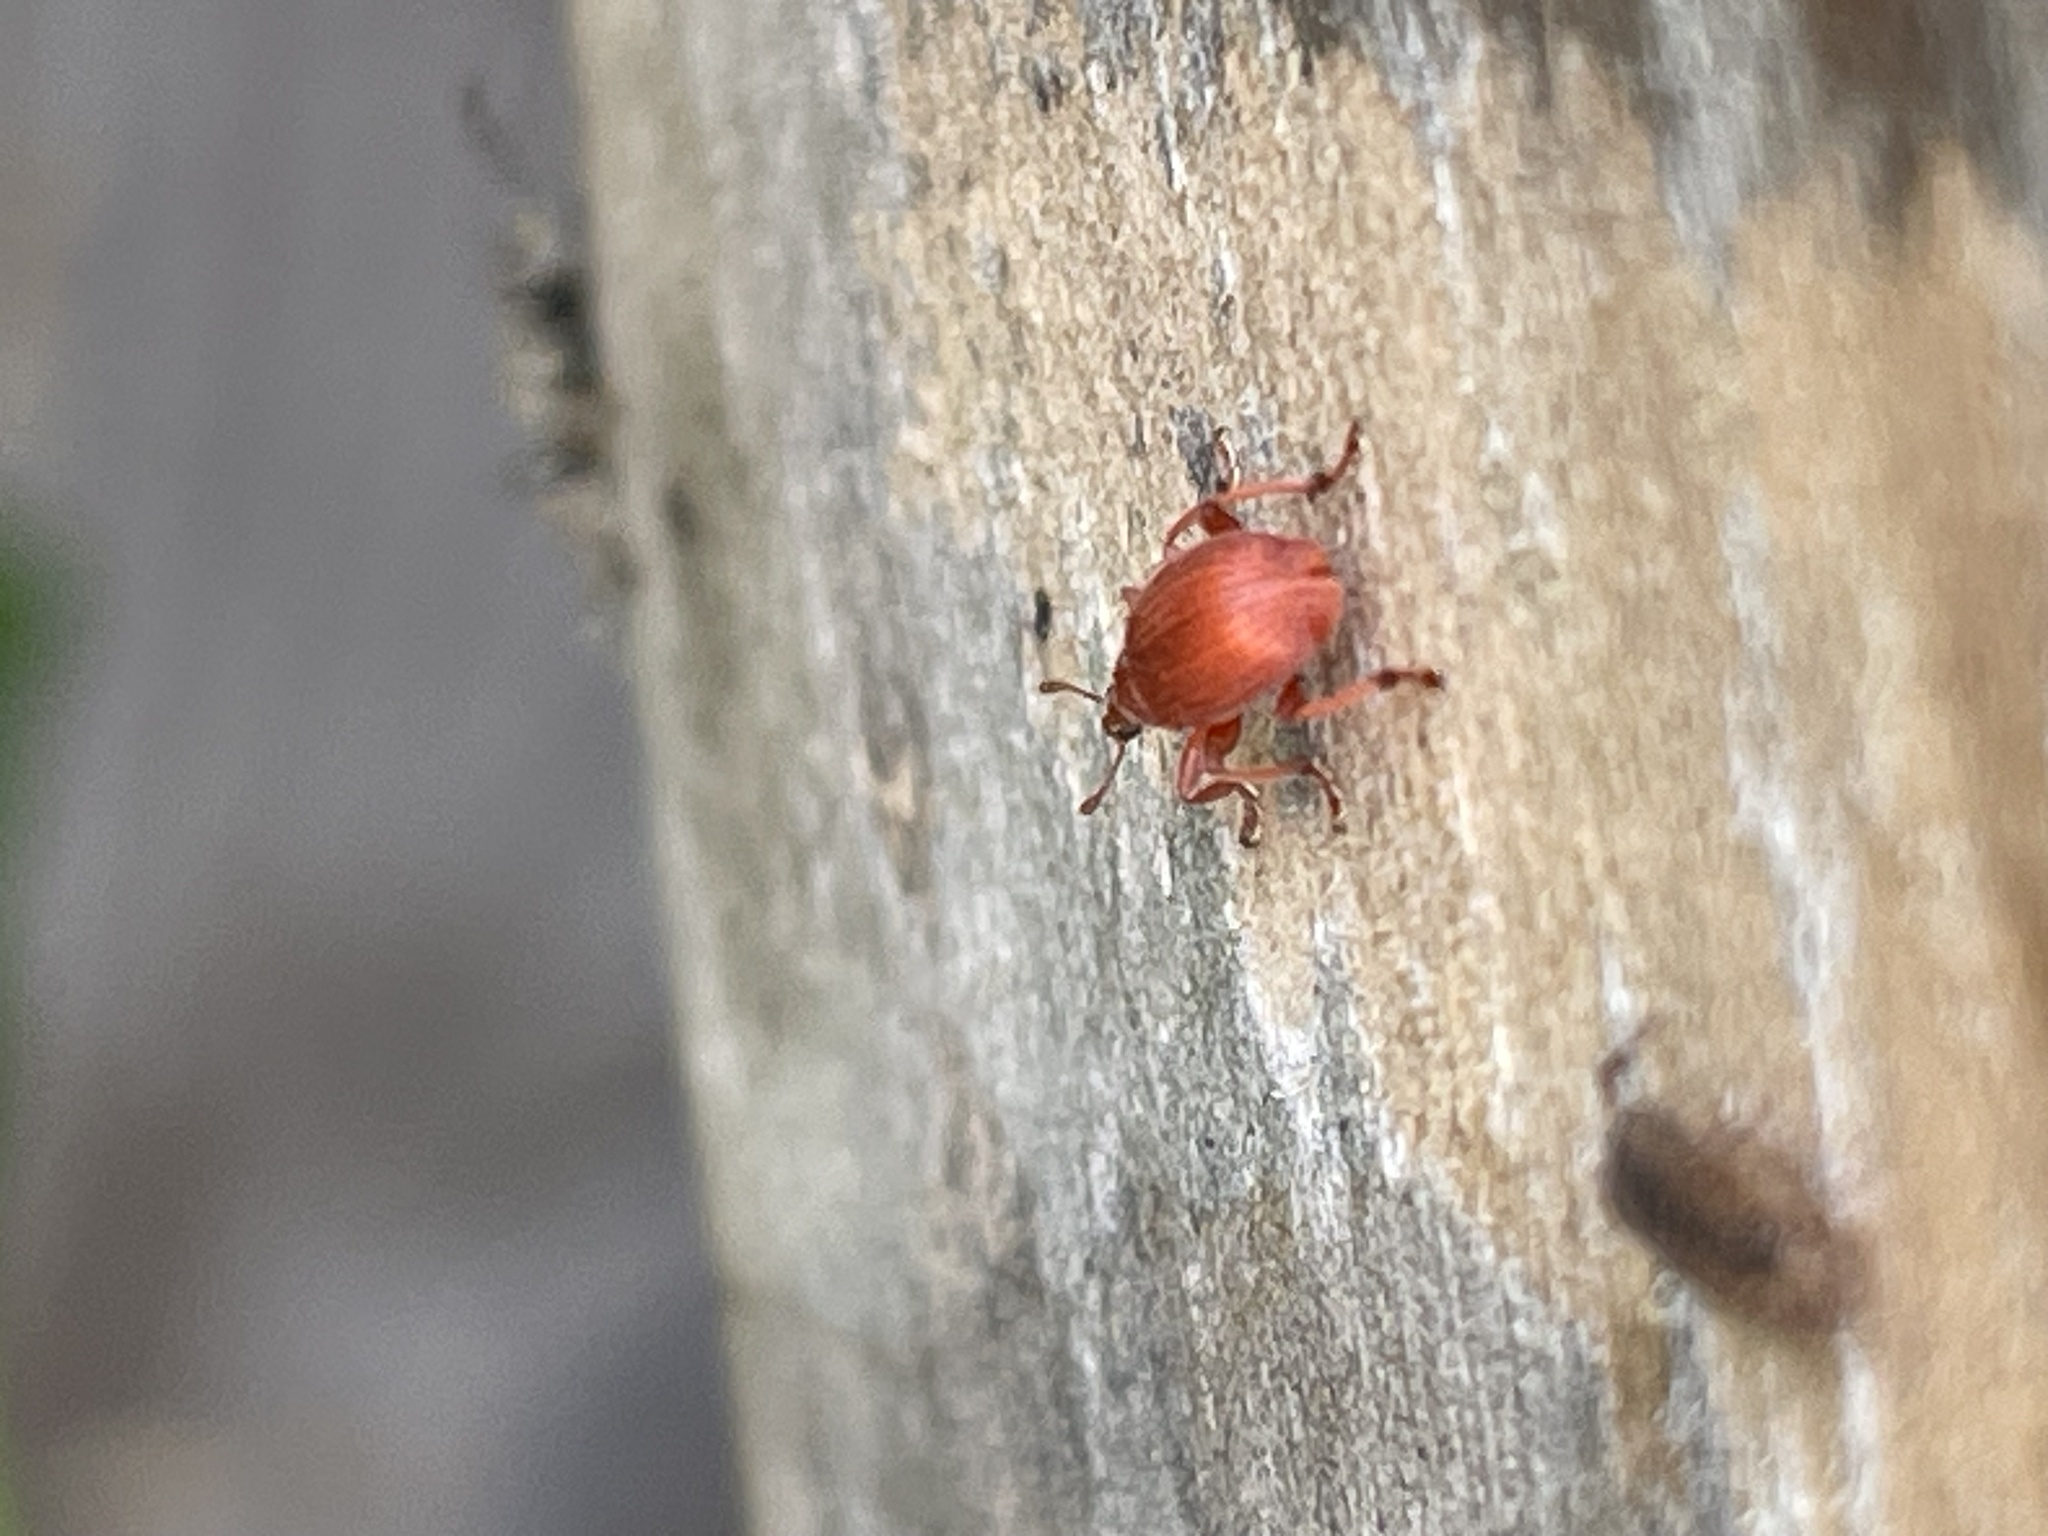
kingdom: Animalia
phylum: Arthropoda
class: Insecta
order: Coleoptera
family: Apionidae
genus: Apion
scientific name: Apion frumentarium
